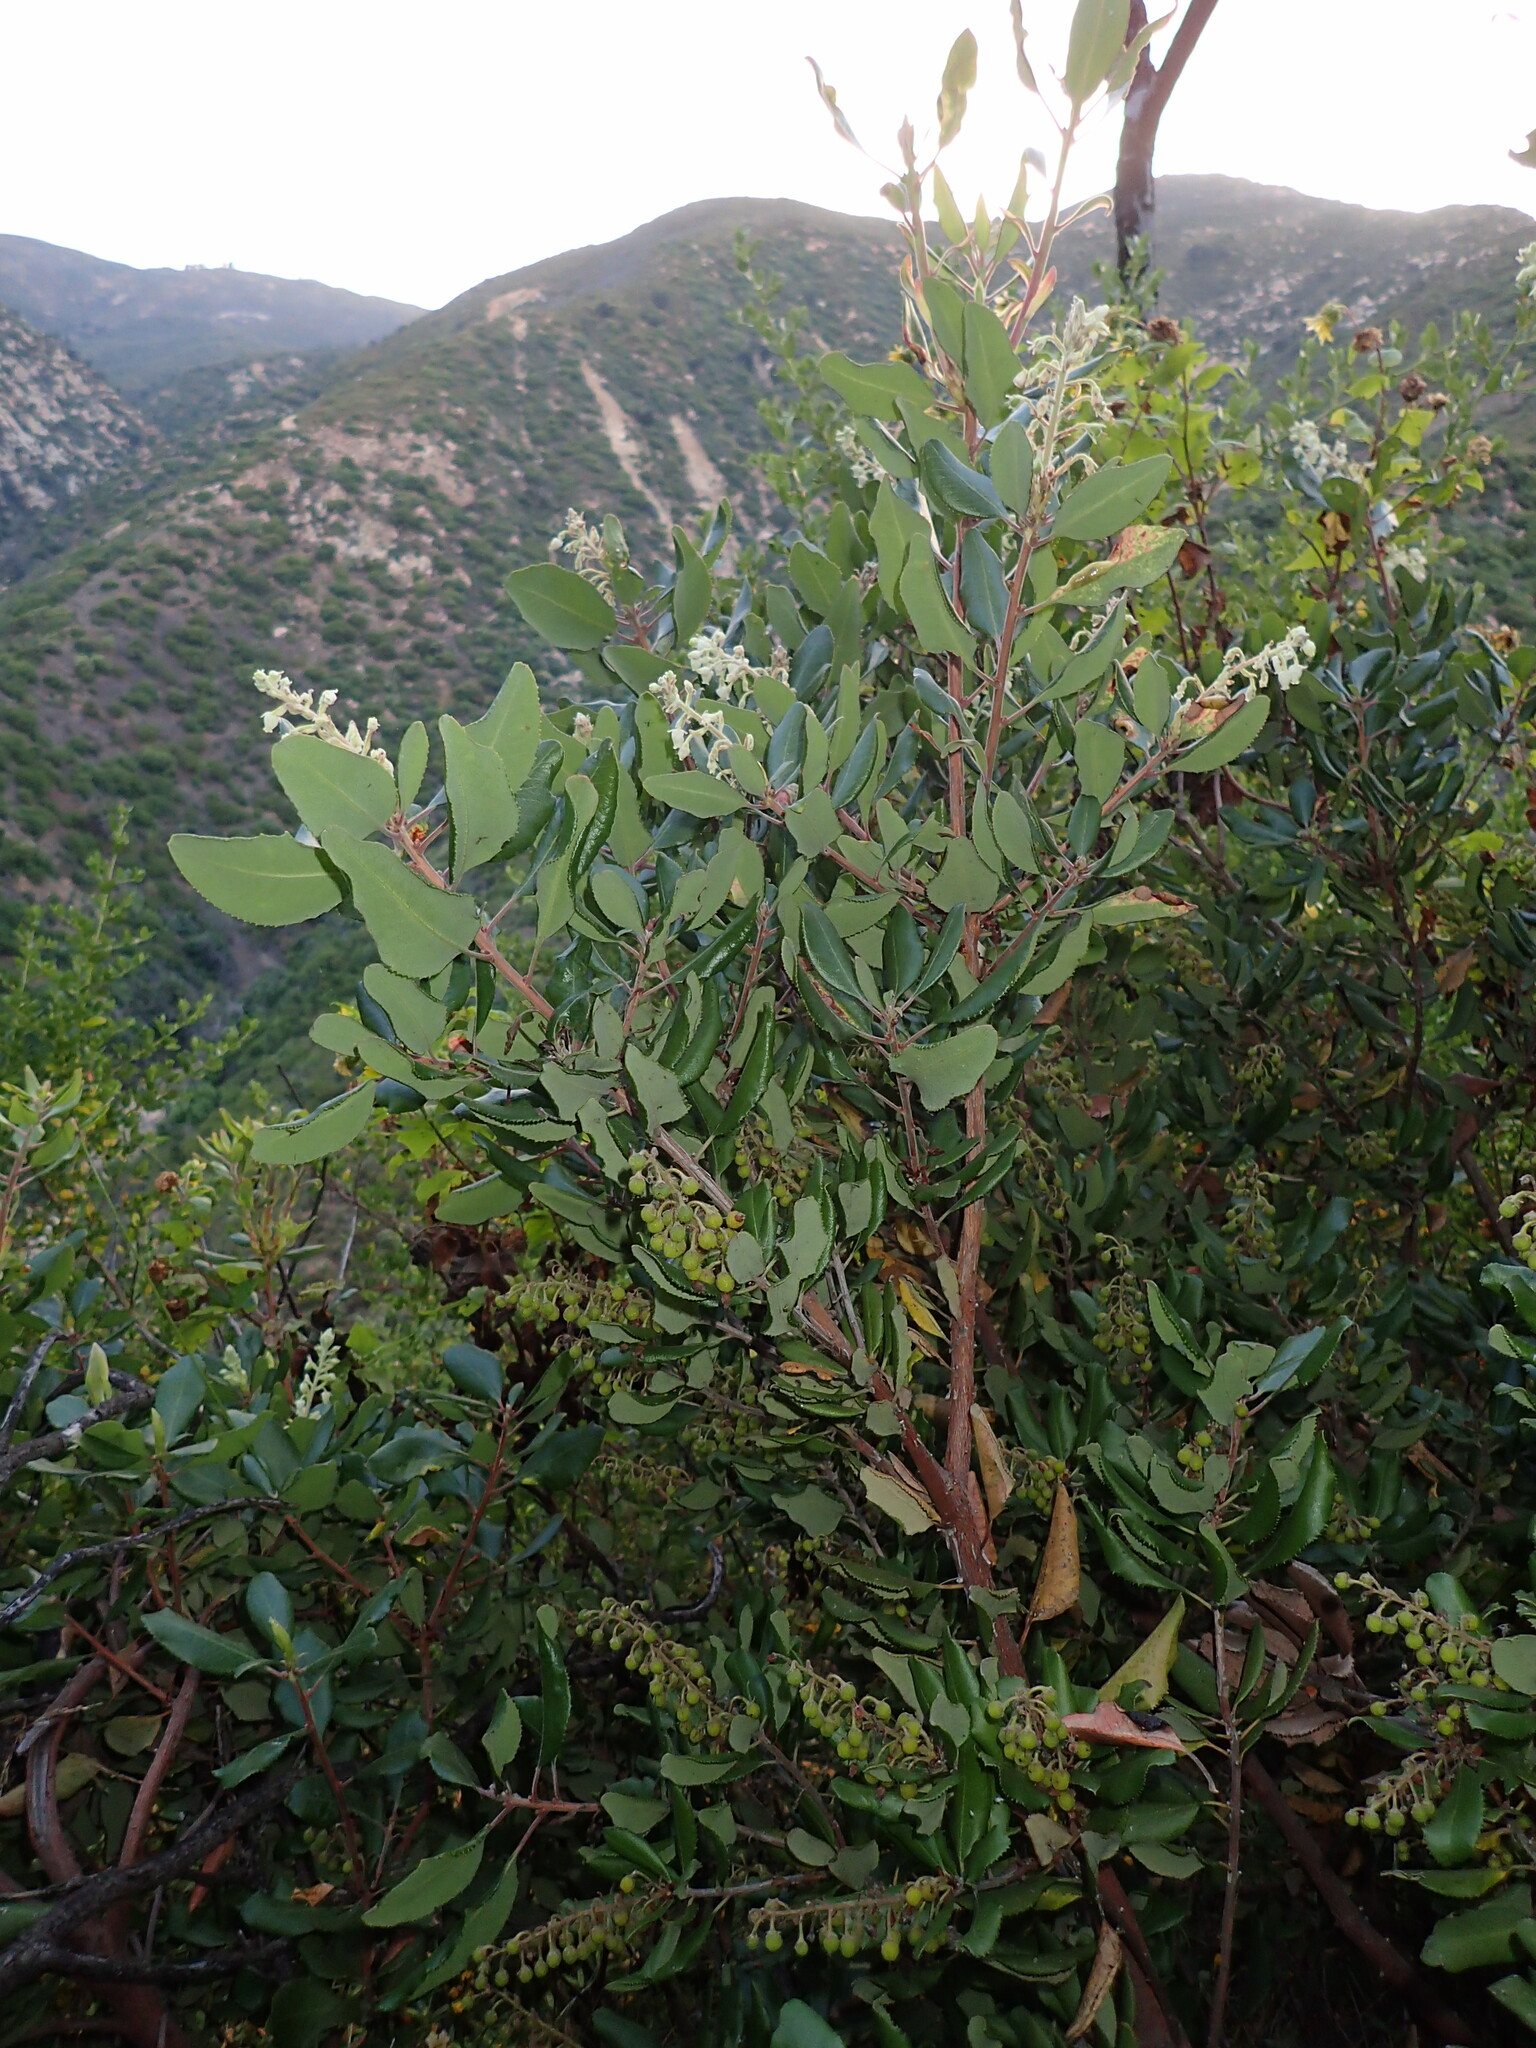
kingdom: Plantae
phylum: Tracheophyta
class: Magnoliopsida
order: Ericales
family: Ericaceae
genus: Comarostaphylis
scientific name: Comarostaphylis diversifolia
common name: Summer-holly
